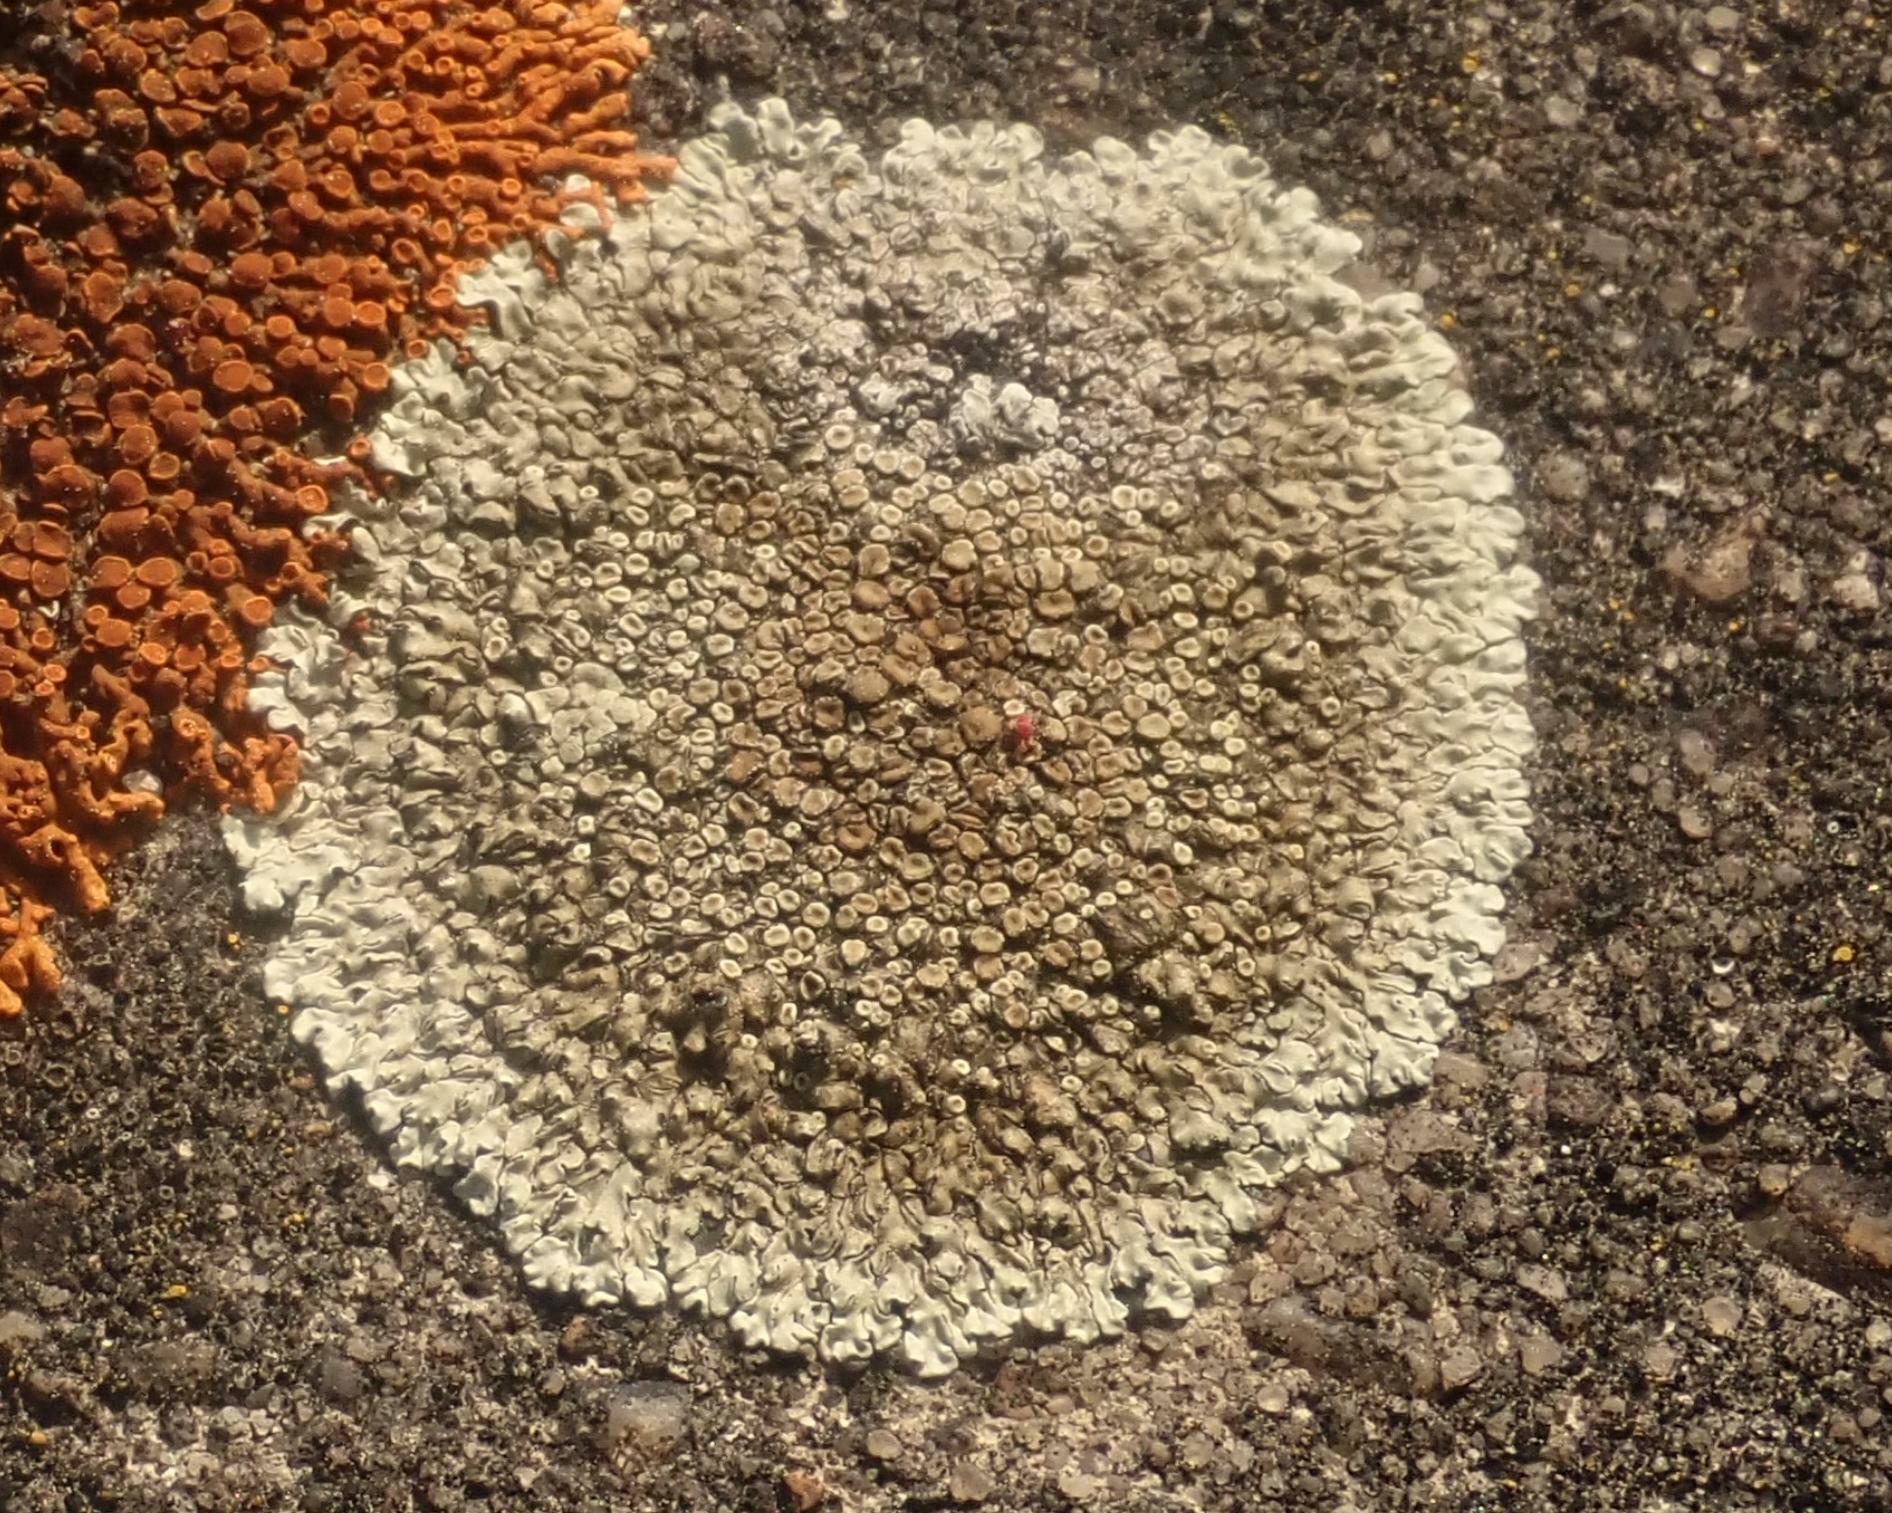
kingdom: Fungi
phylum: Ascomycota
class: Lecanoromycetes
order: Lecanorales
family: Lecanoraceae
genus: Protoparmeliopsis
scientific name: Protoparmeliopsis muralis
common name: Stonewall rim lichen
